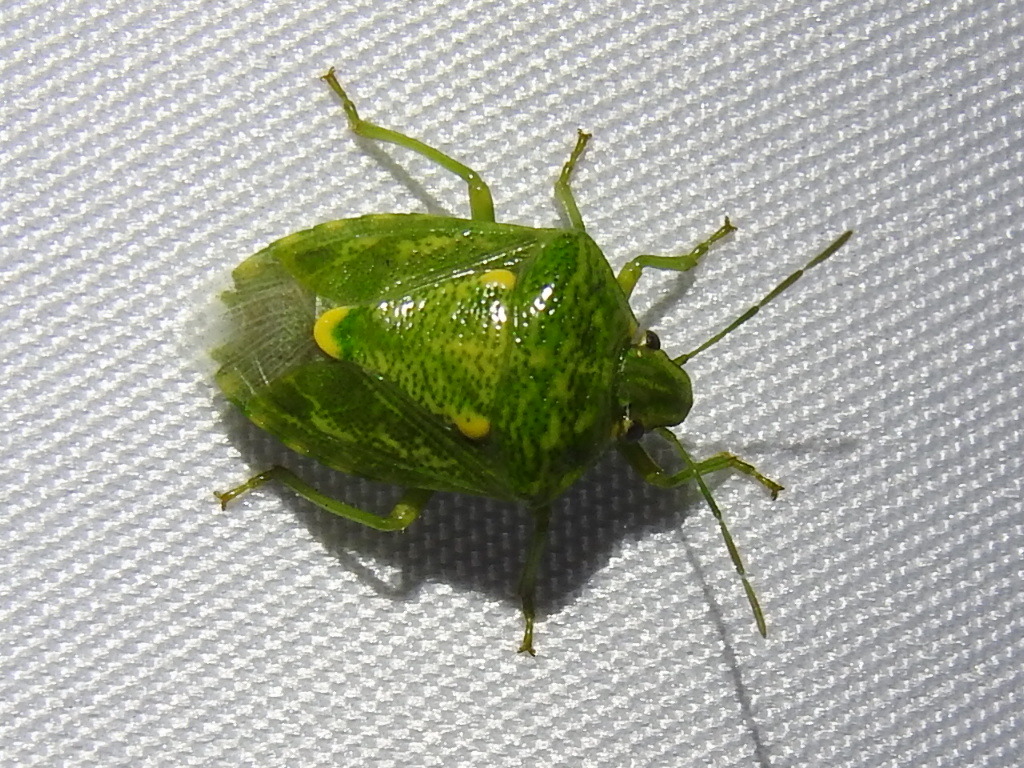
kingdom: Animalia
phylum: Arthropoda
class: Insecta
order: Hemiptera
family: Pentatomidae
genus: Banasa
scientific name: Banasa euchlora
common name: Cedar berry bug
